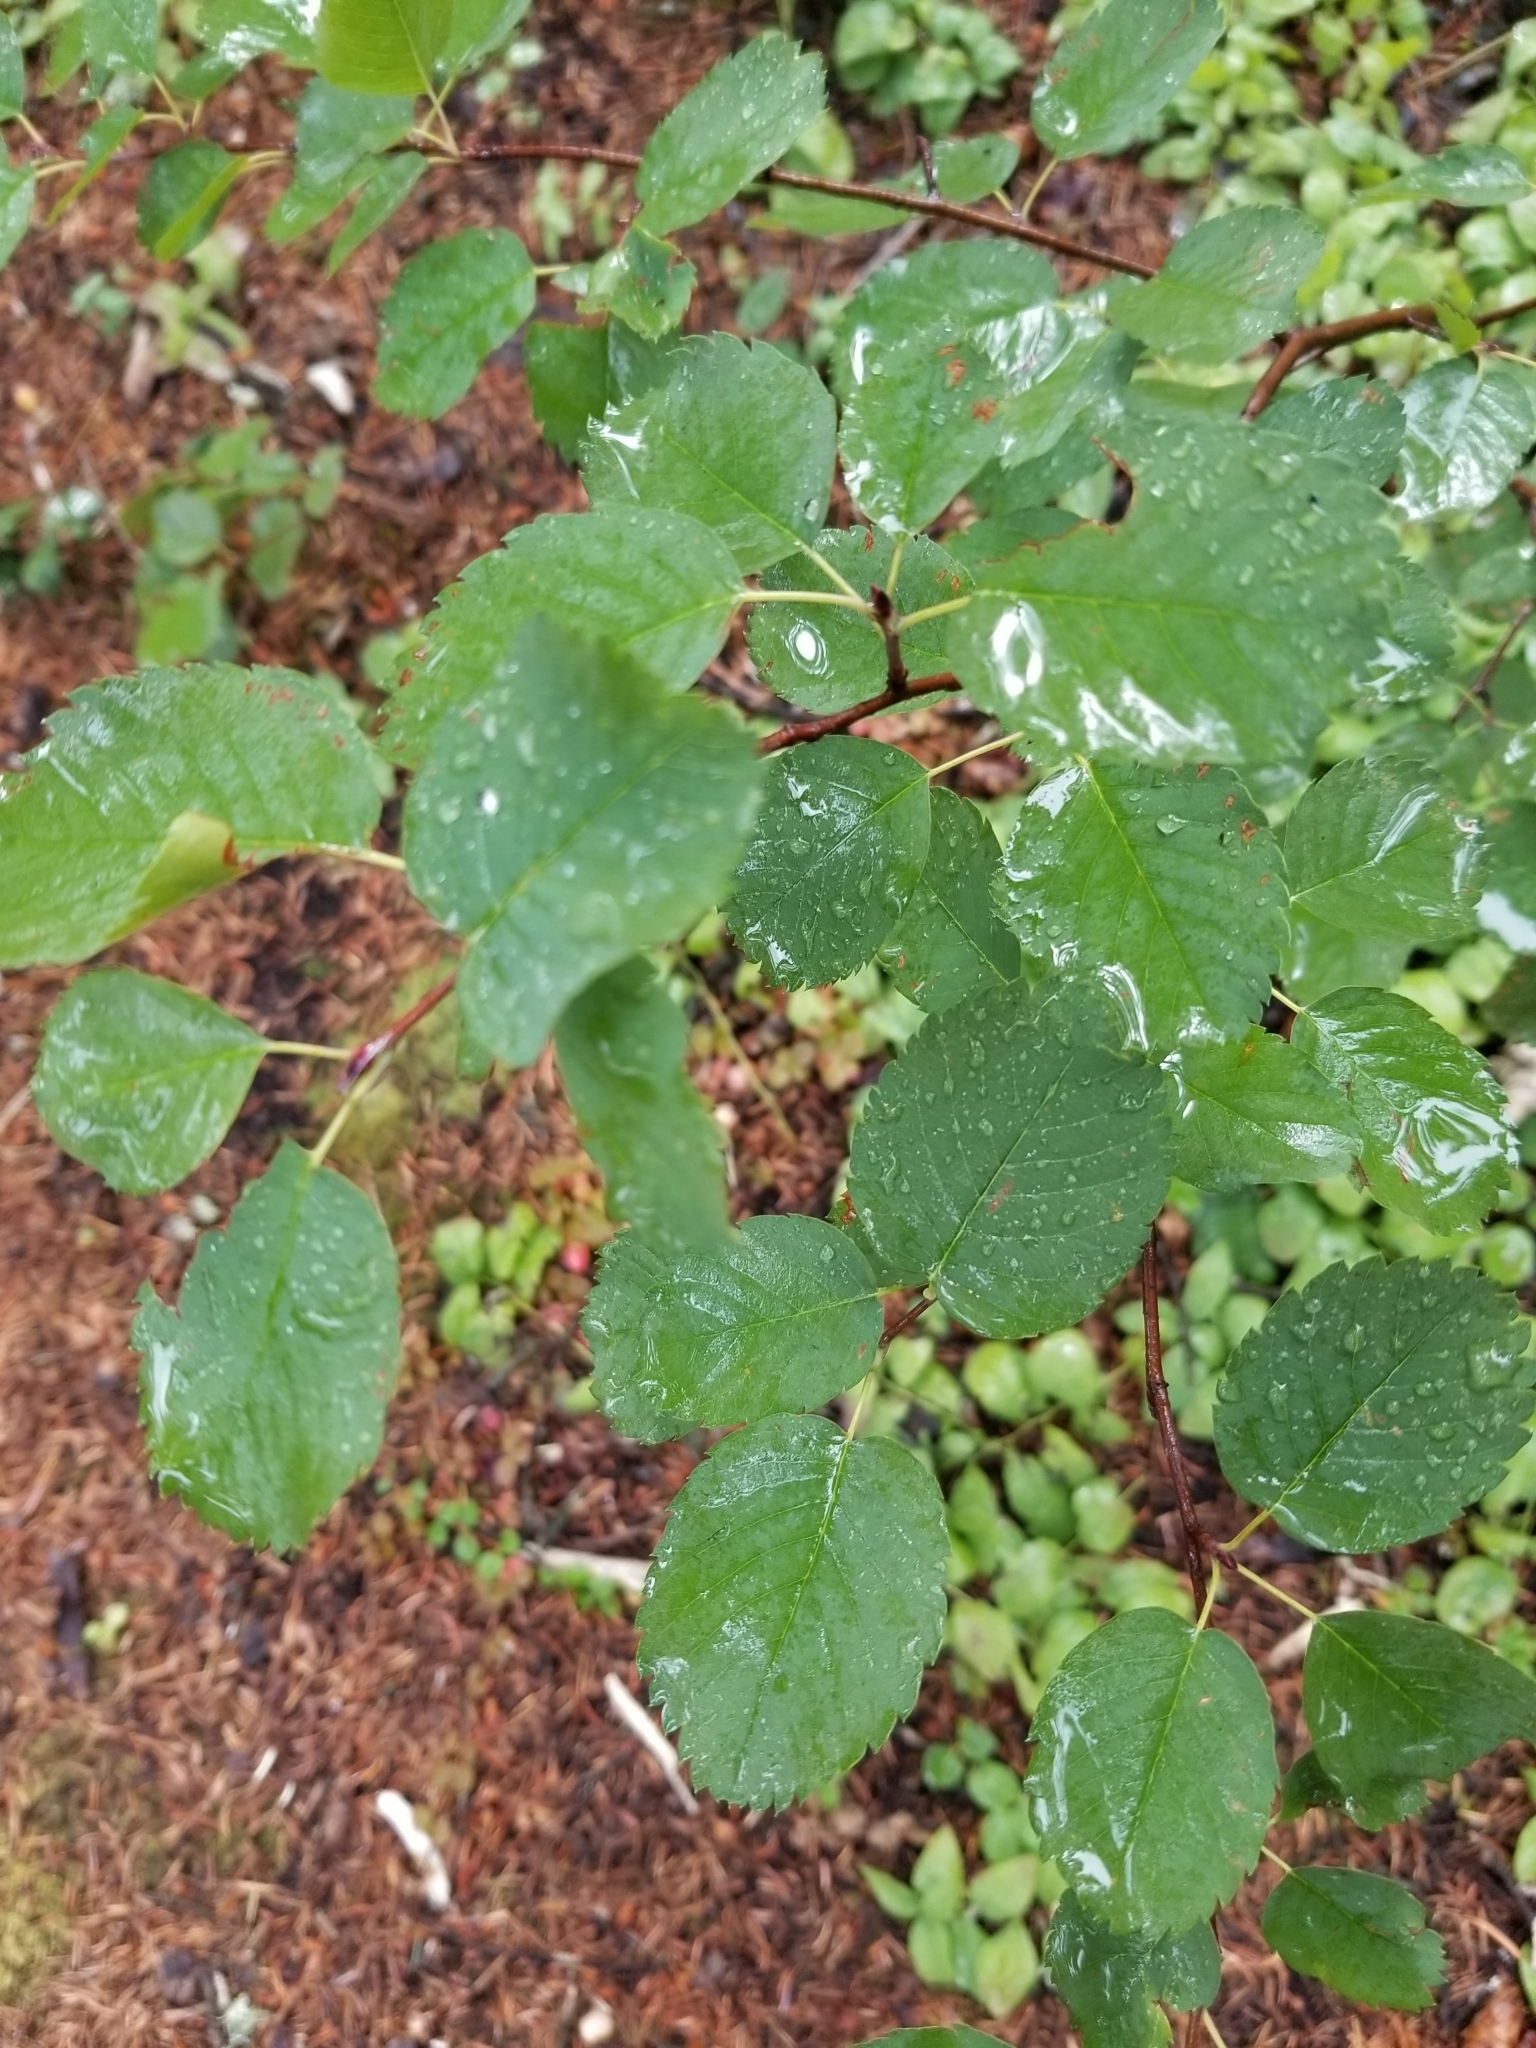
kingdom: Plantae
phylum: Tracheophyta
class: Magnoliopsida
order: Rosales
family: Rosaceae
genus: Amelanchier
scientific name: Amelanchier alnifolia
